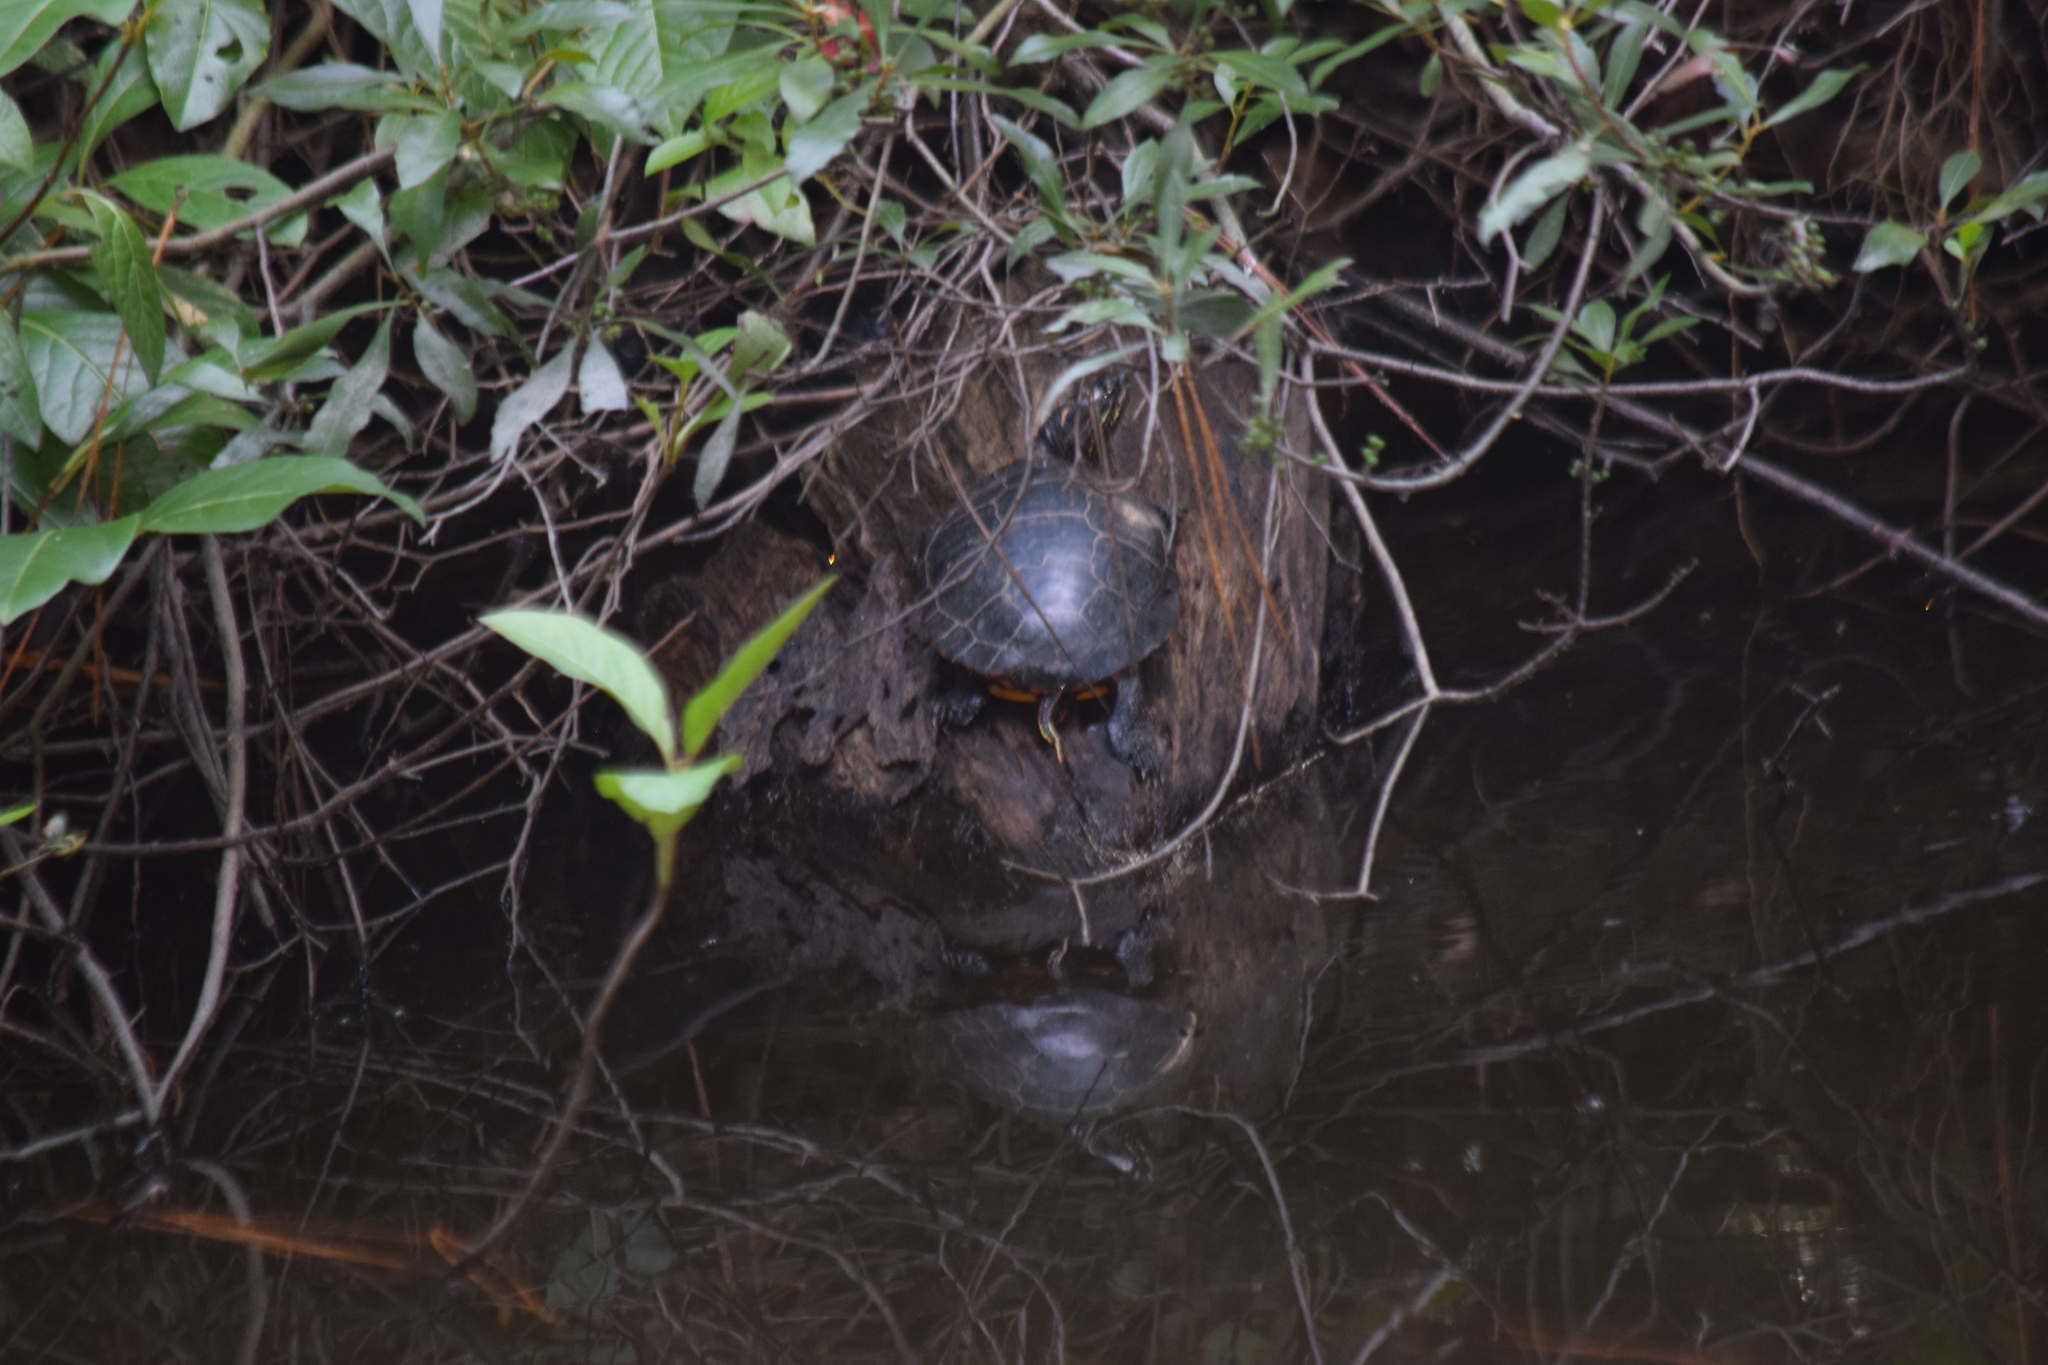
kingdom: Animalia
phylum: Chordata
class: Testudines
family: Emydidae
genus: Chrysemys
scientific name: Chrysemys picta
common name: Painted turtle
